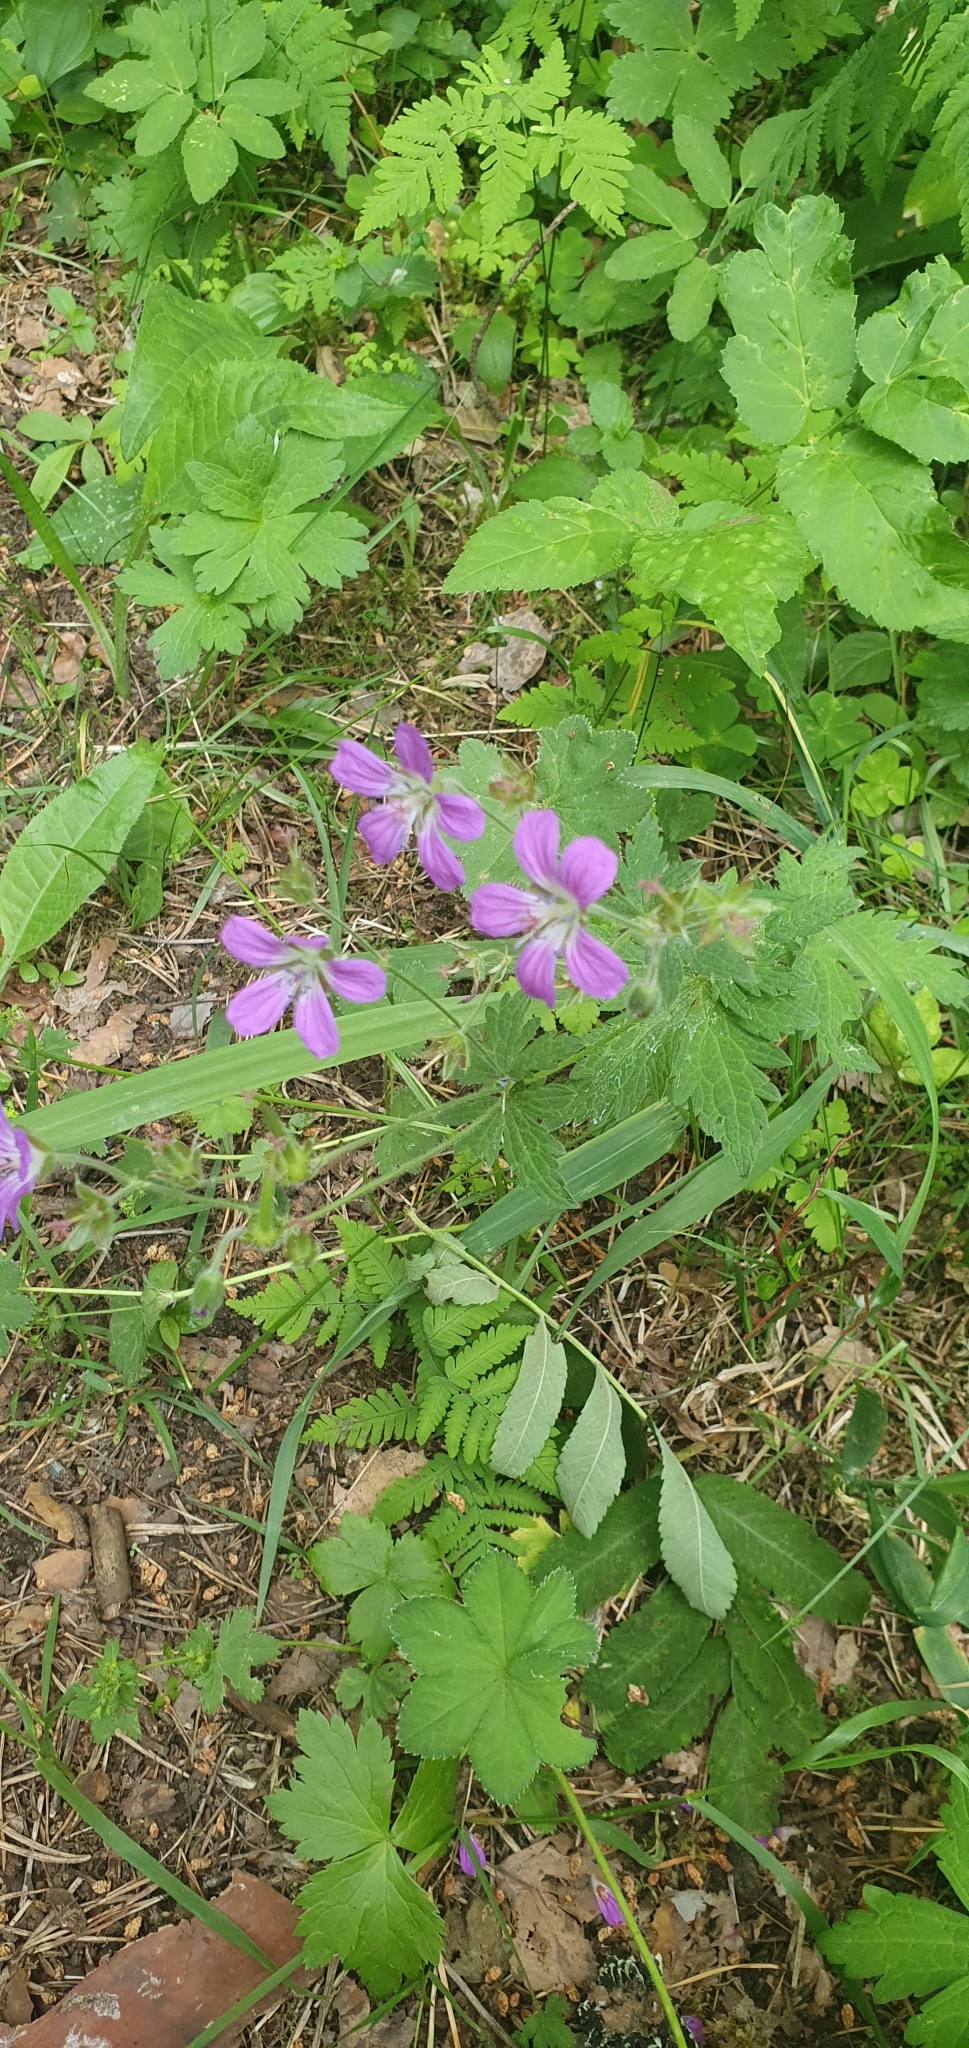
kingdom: Plantae
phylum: Tracheophyta
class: Magnoliopsida
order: Geraniales
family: Geraniaceae
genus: Geranium
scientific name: Geranium sylvaticum
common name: Wood crane's-bill
